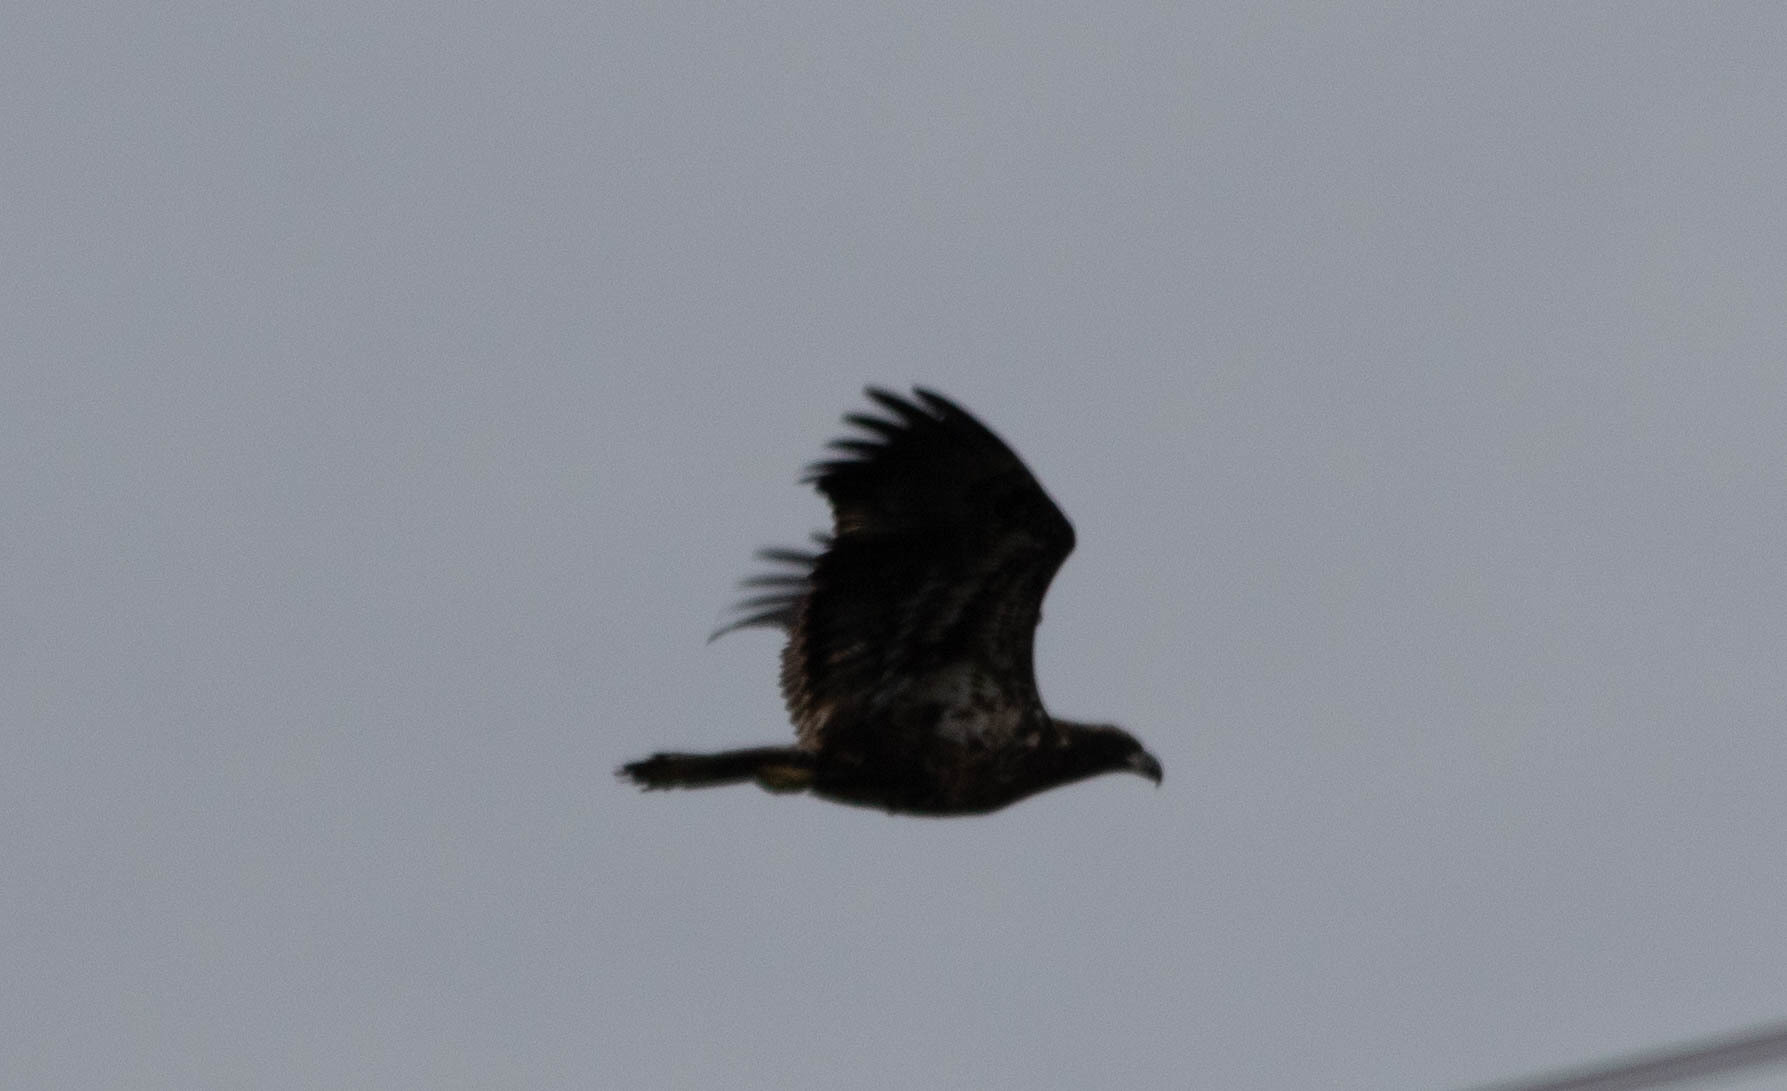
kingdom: Animalia
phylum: Chordata
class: Aves
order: Accipitriformes
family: Accipitridae
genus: Haliaeetus
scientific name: Haliaeetus leucocephalus
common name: Bald eagle
